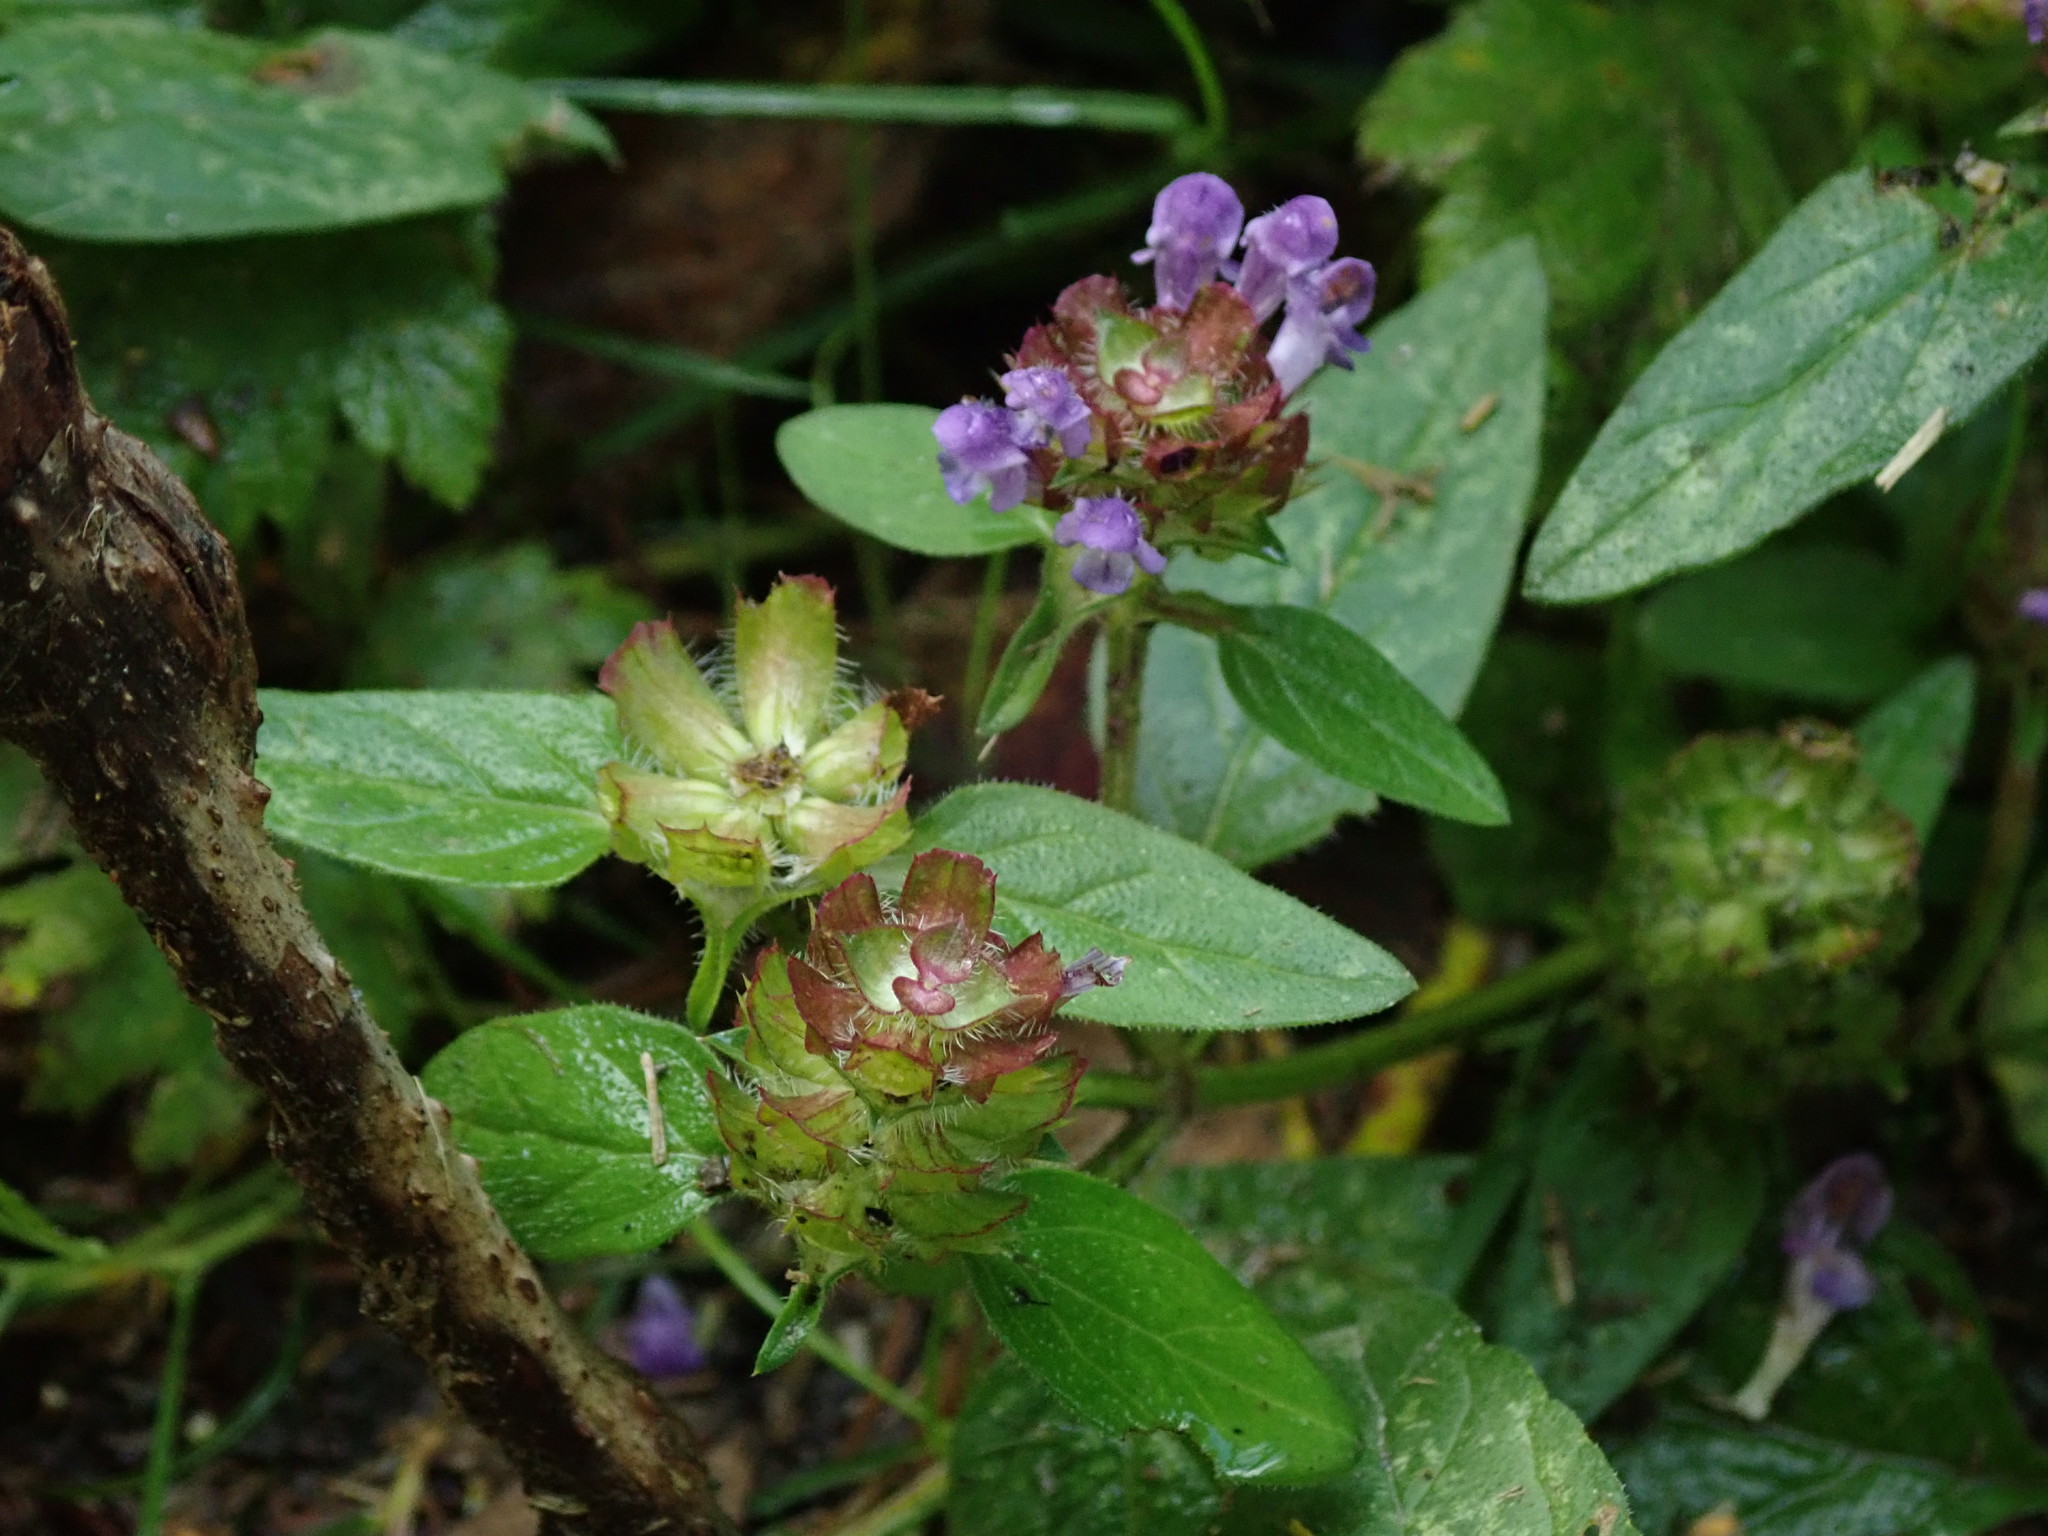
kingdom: Plantae
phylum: Tracheophyta
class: Magnoliopsida
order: Lamiales
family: Lamiaceae
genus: Prunella
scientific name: Prunella vulgaris
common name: Heal-all
